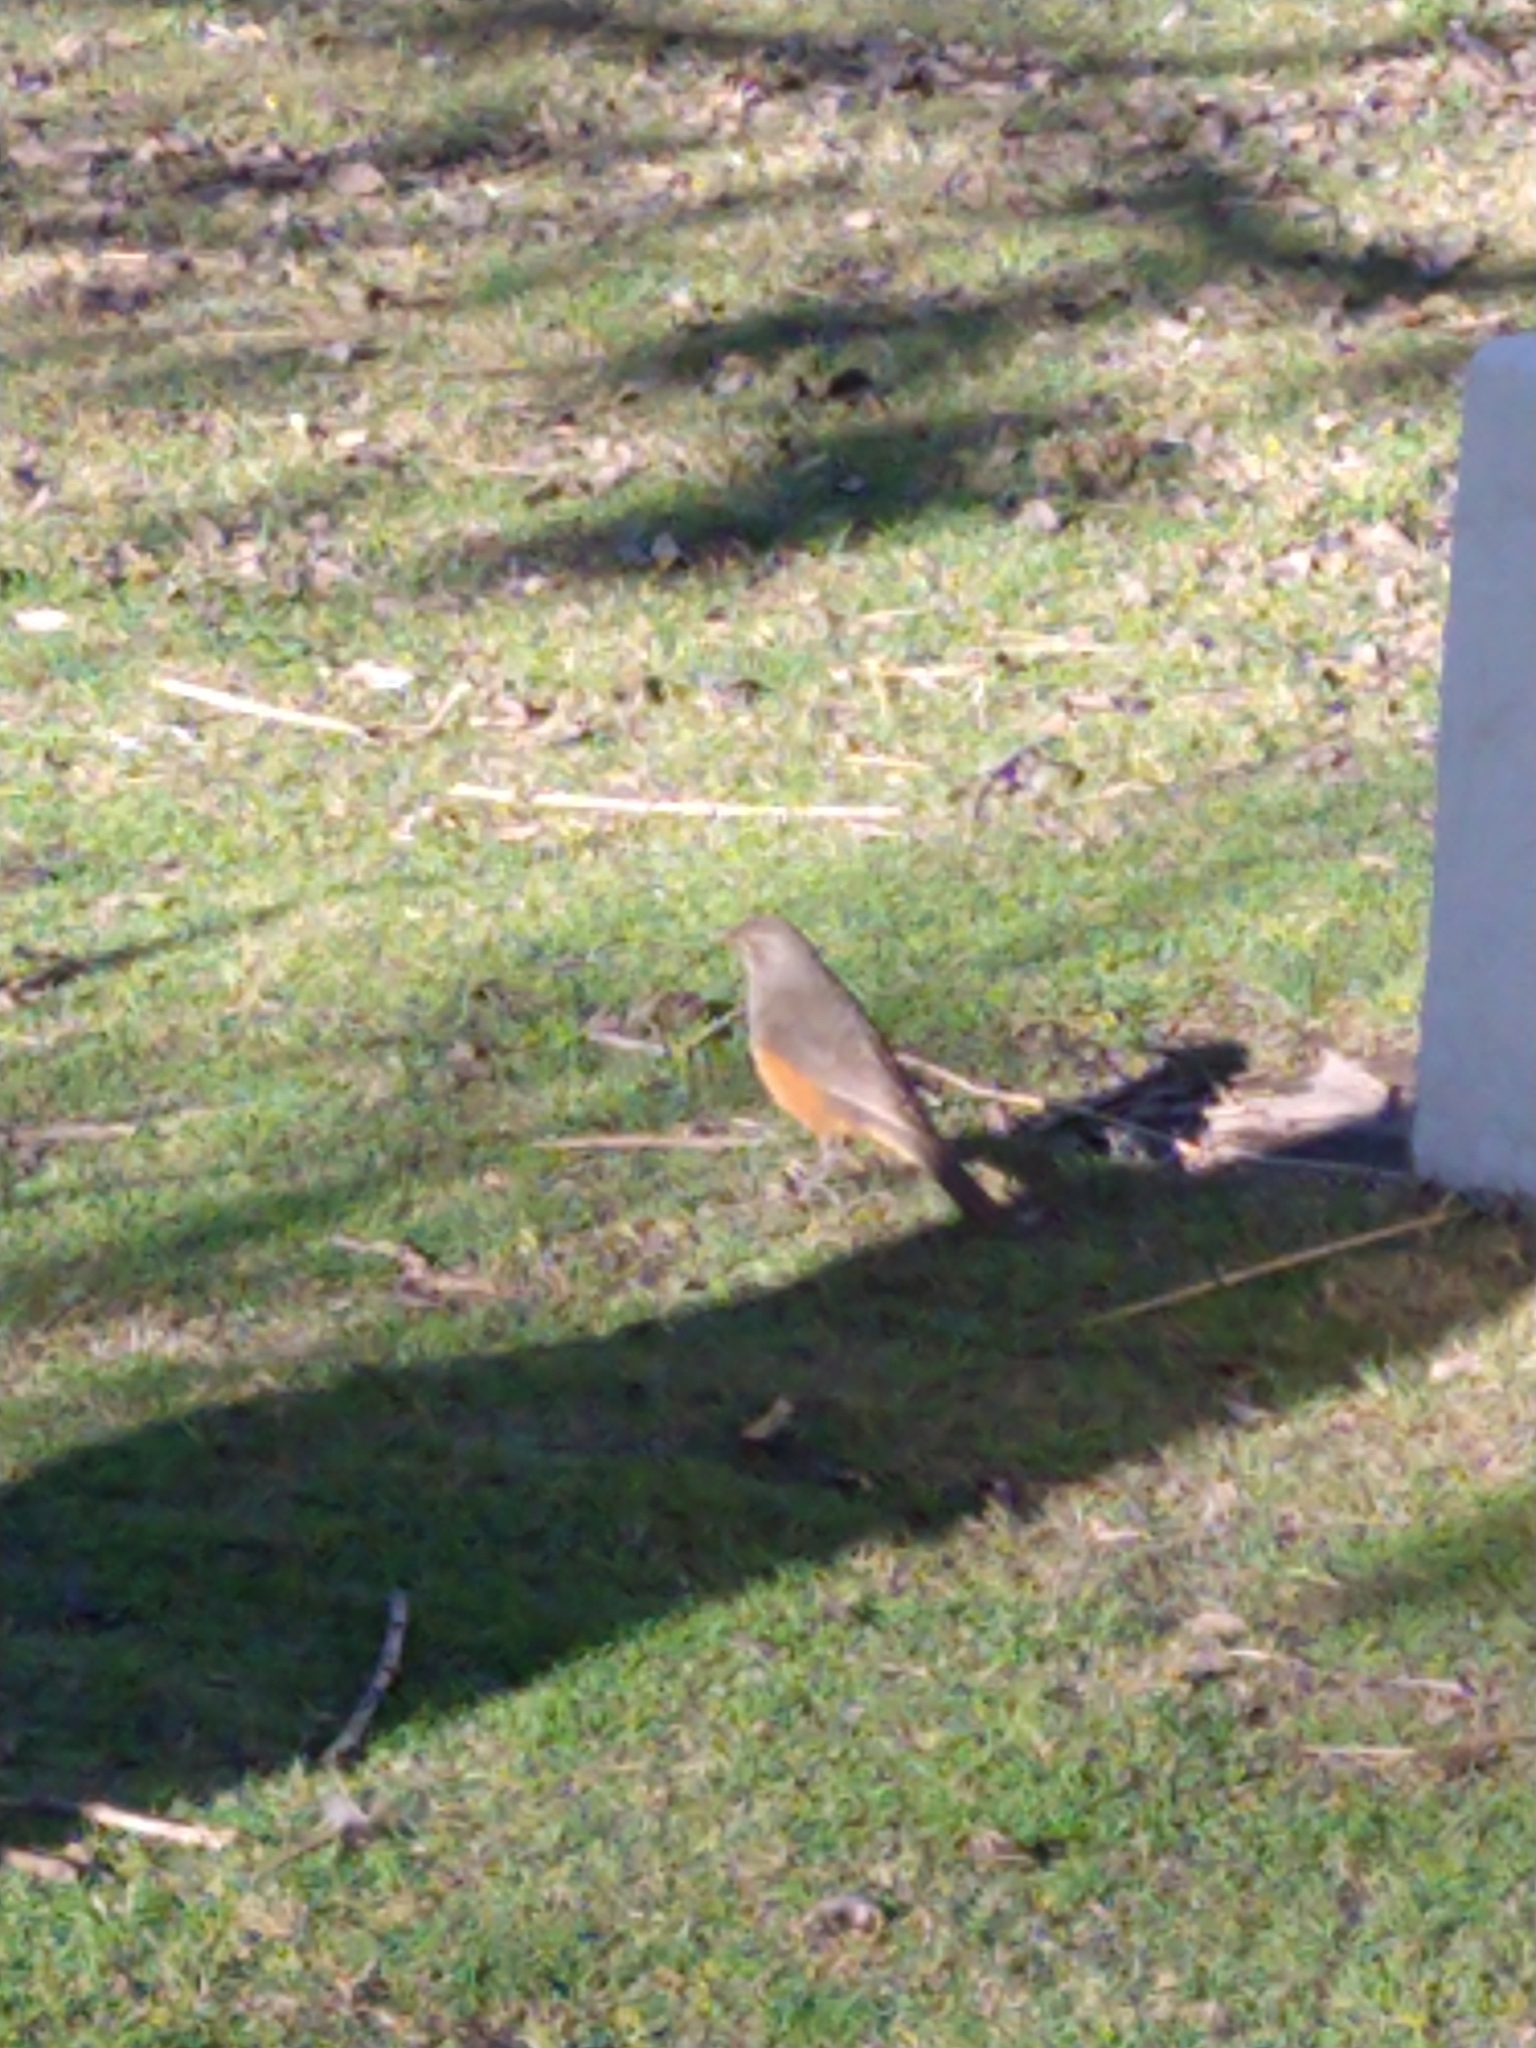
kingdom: Animalia
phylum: Chordata
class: Aves
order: Passeriformes
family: Turdidae
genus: Turdus
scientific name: Turdus rufiventris
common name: Rufous-bellied thrush
